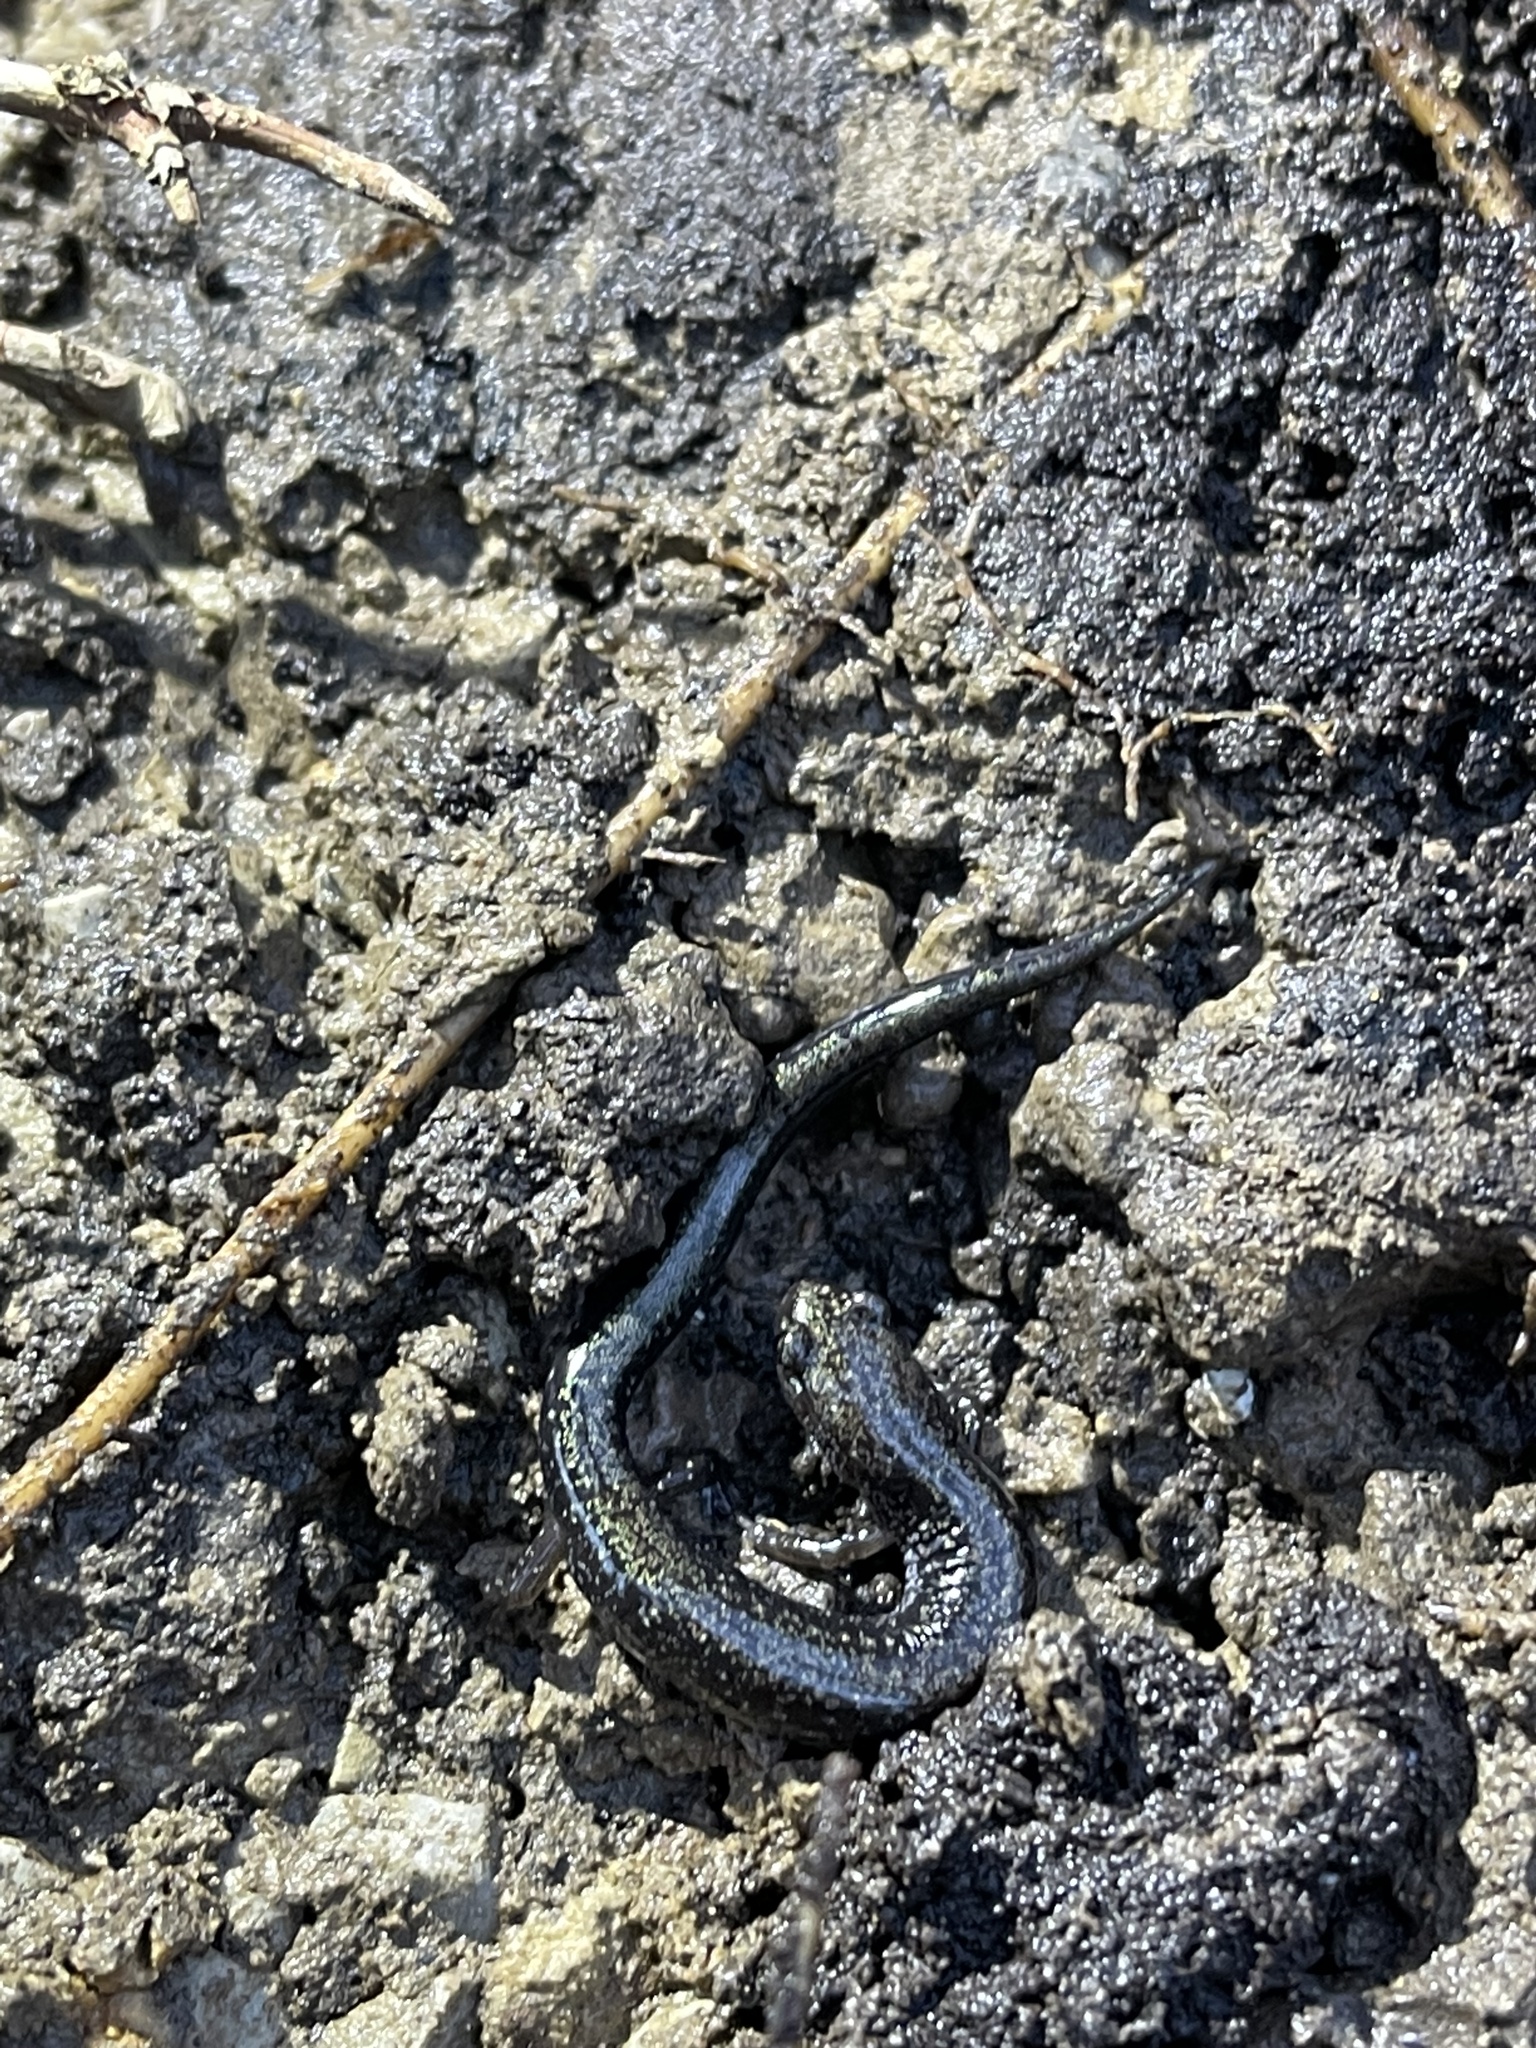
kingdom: Animalia
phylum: Chordata
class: Amphibia
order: Caudata
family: Plethodontidae
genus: Plethodon
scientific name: Plethodon richmondi
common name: Ravine salamander
